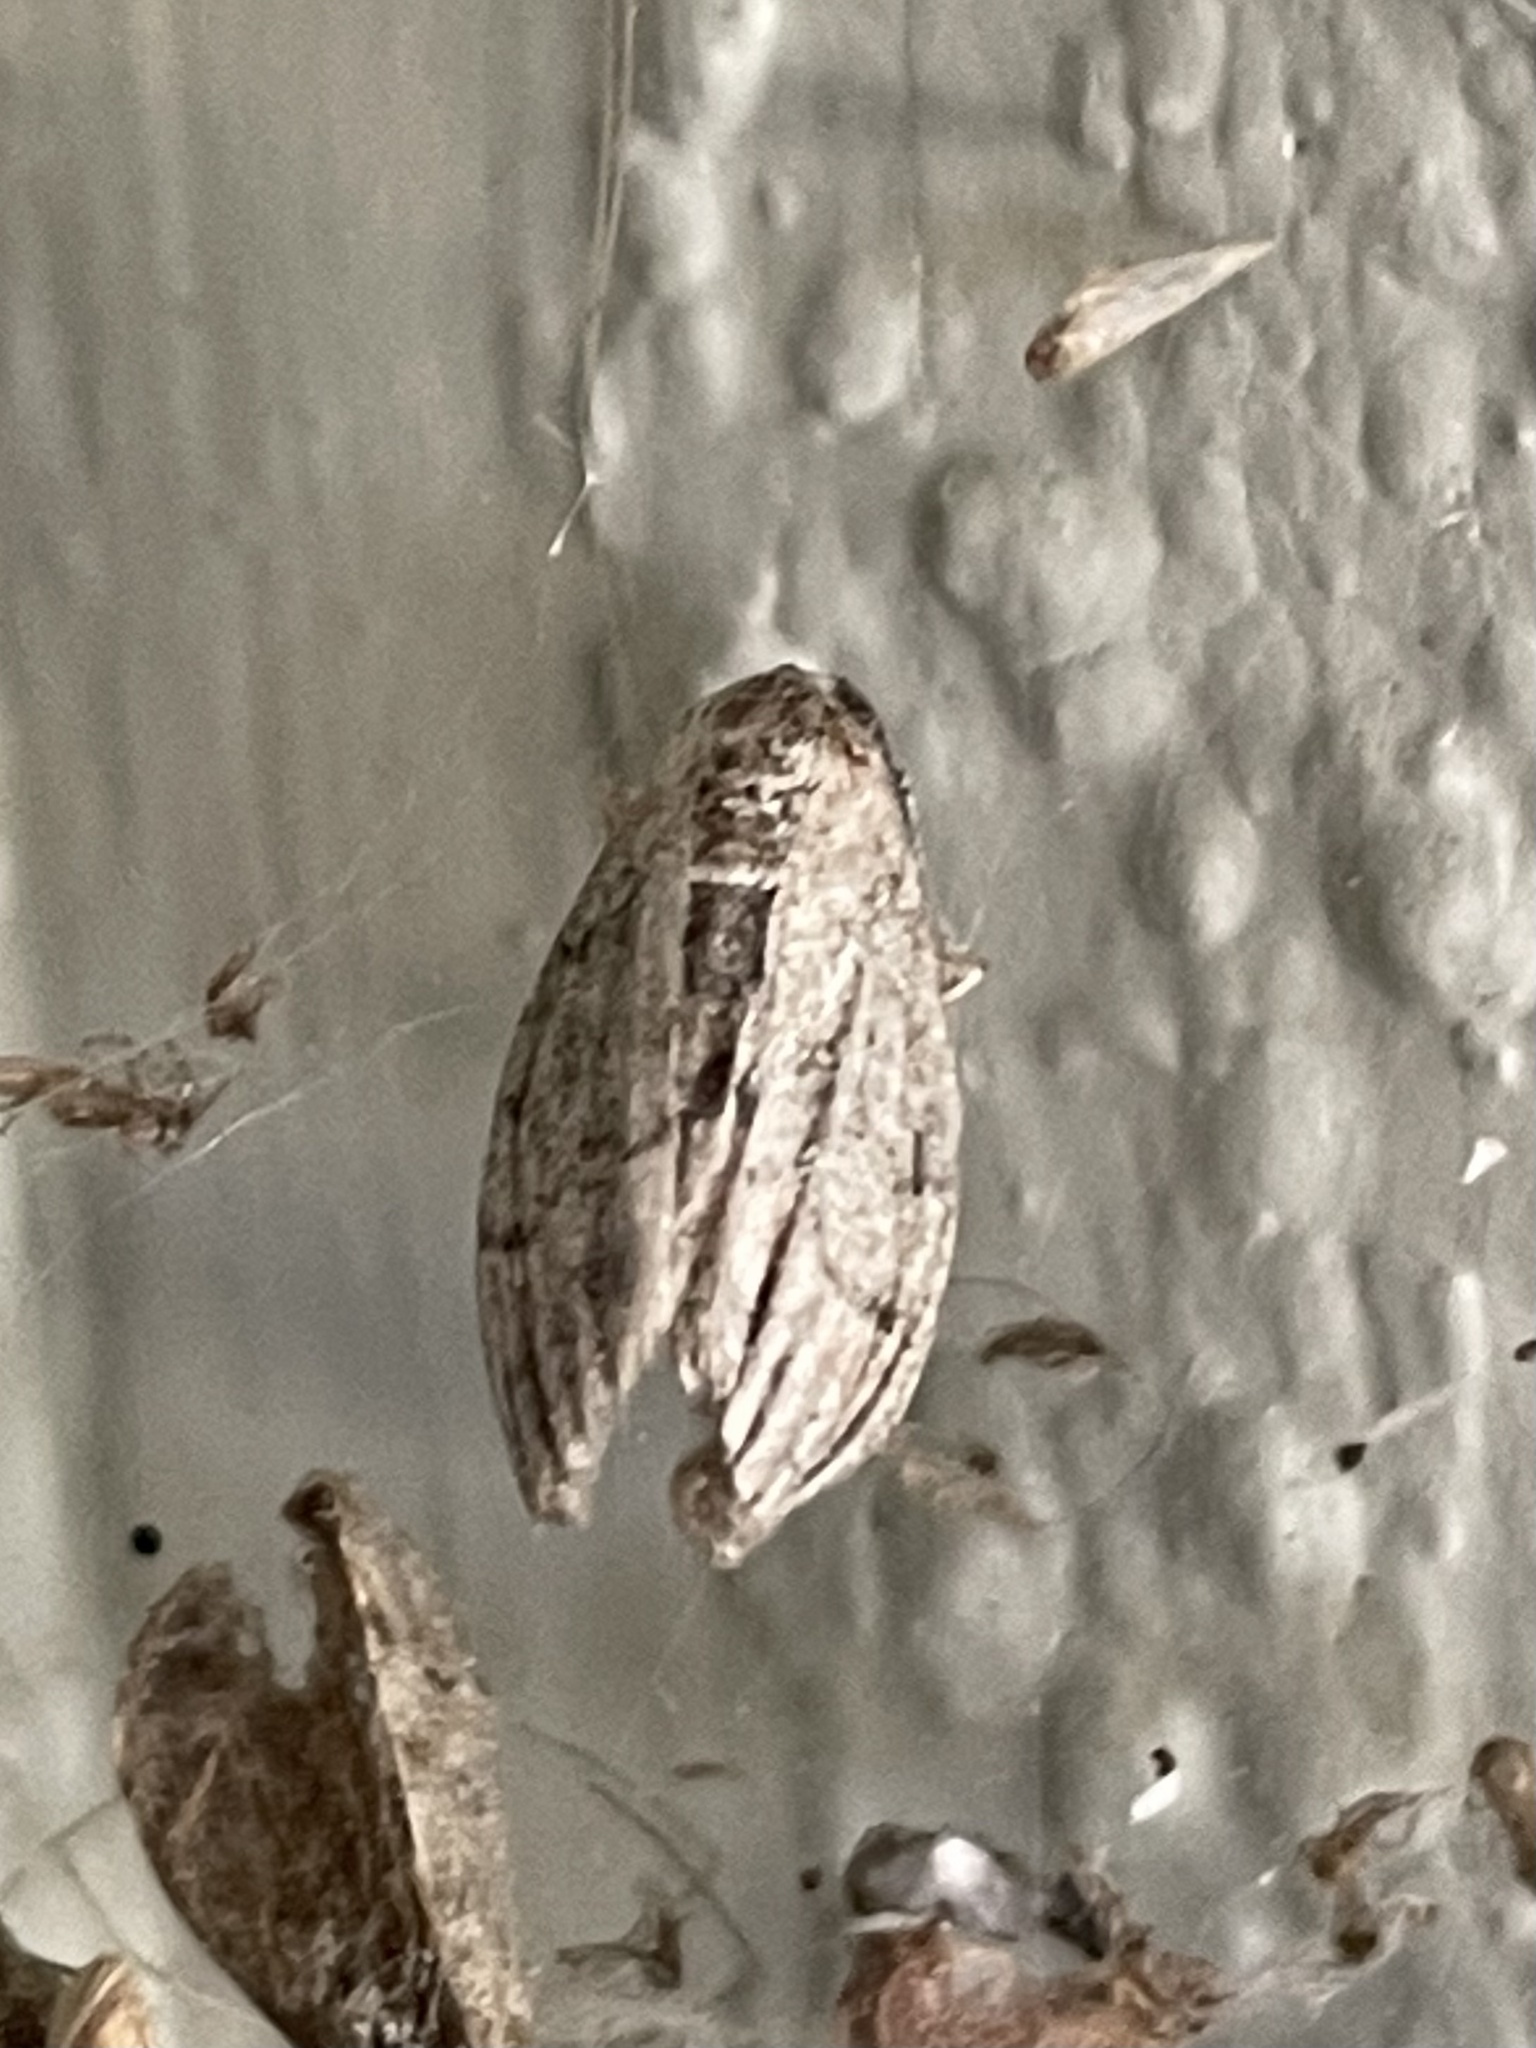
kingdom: Animalia
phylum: Arthropoda
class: Insecta
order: Lepidoptera
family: Geometridae
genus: Paleacrita
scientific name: Paleacrita vernata
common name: Spring cankerworm
